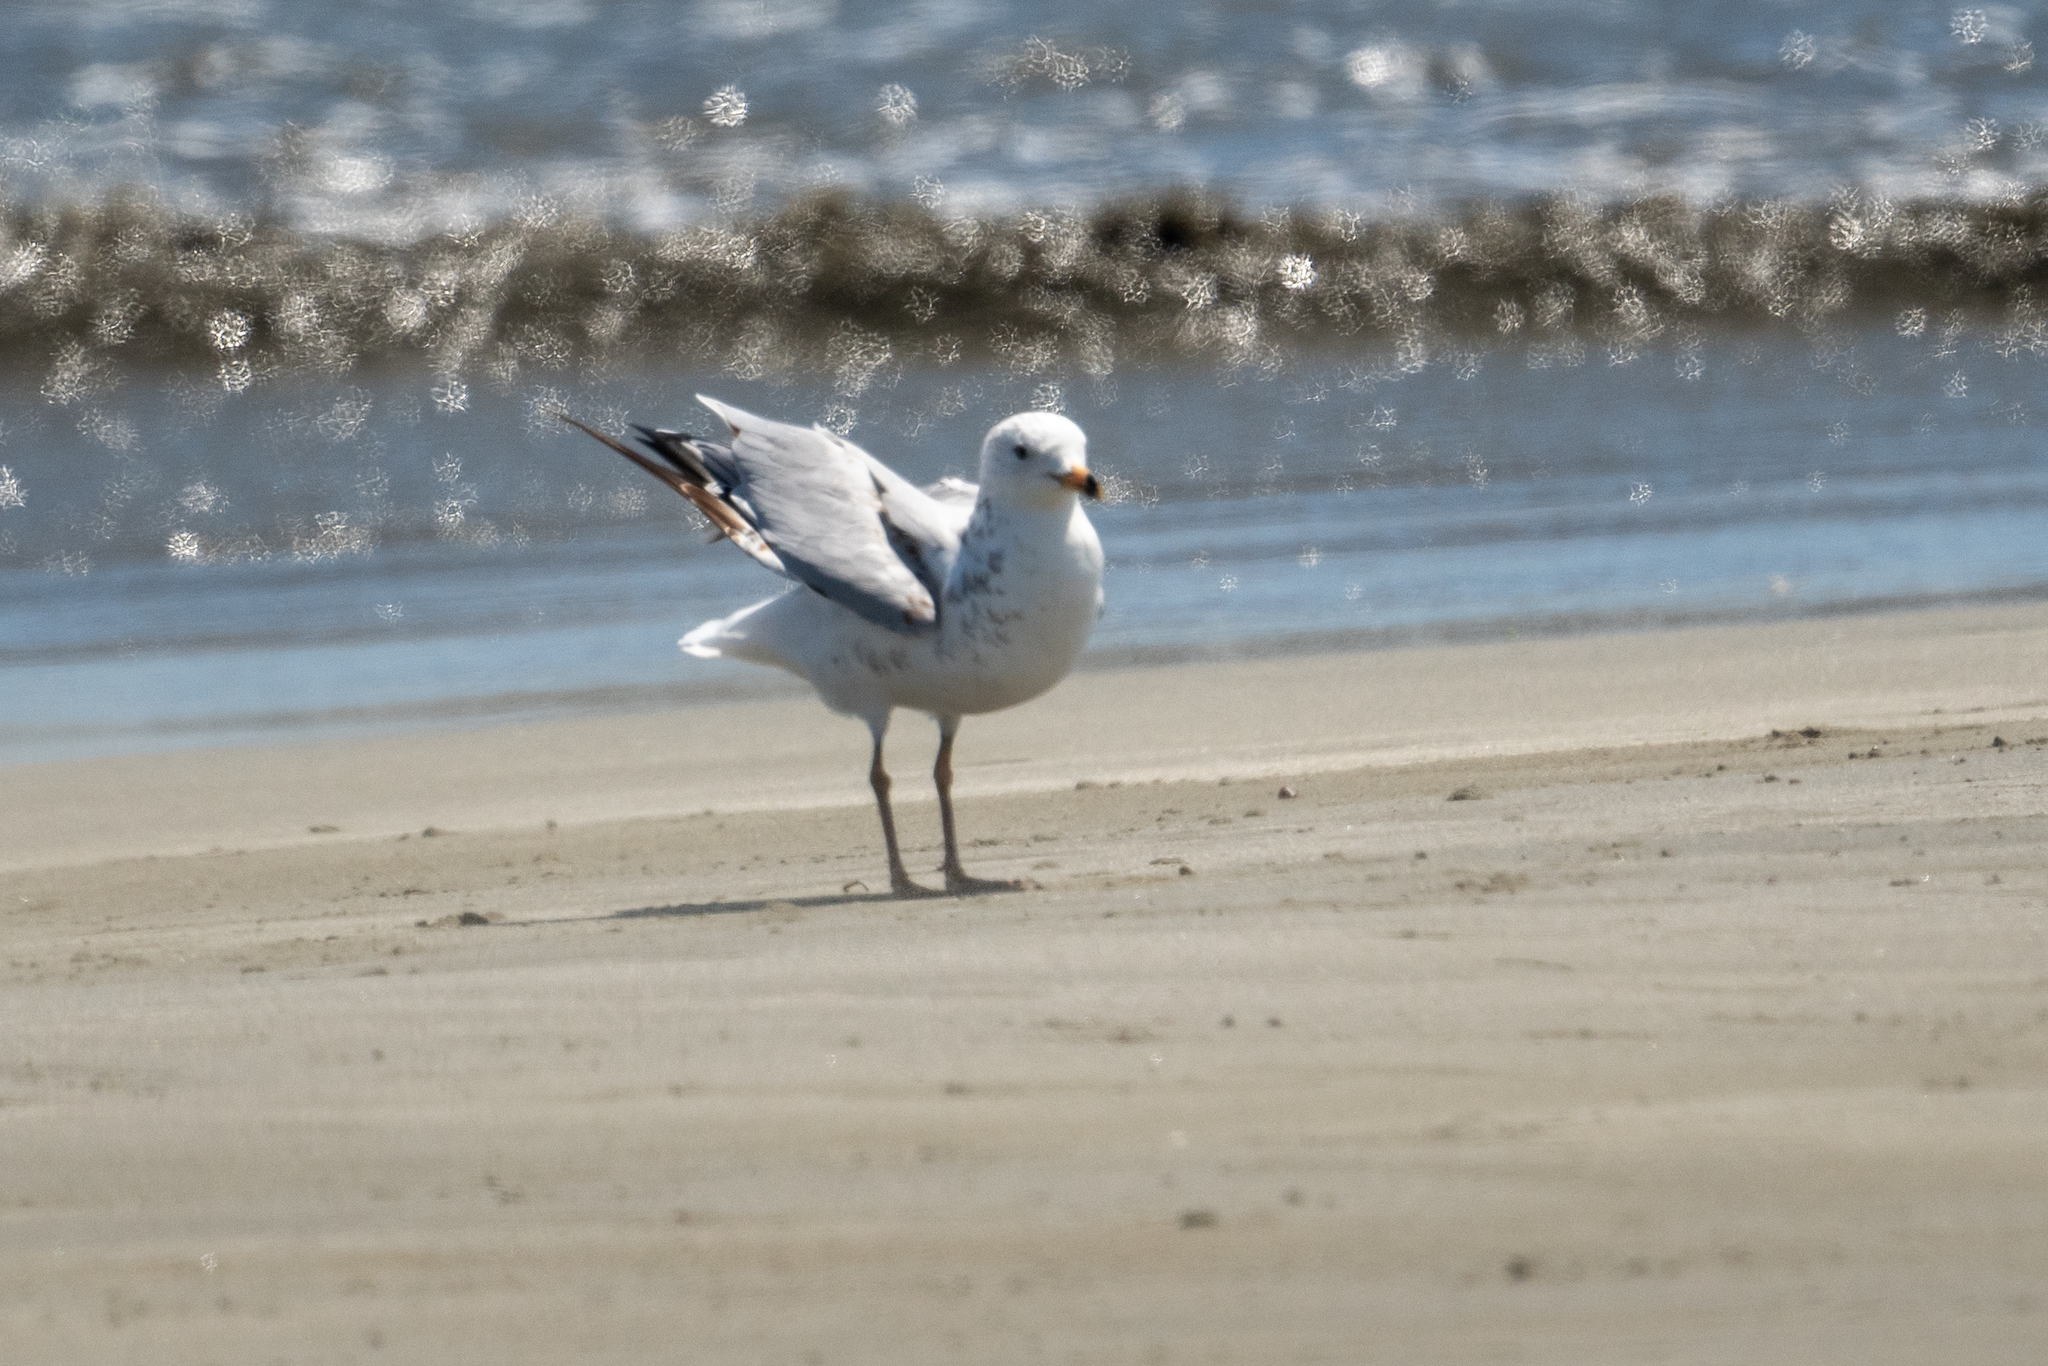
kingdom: Animalia
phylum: Chordata
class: Aves
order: Charadriiformes
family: Laridae
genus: Larus
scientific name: Larus delawarensis
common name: Ring-billed gull
